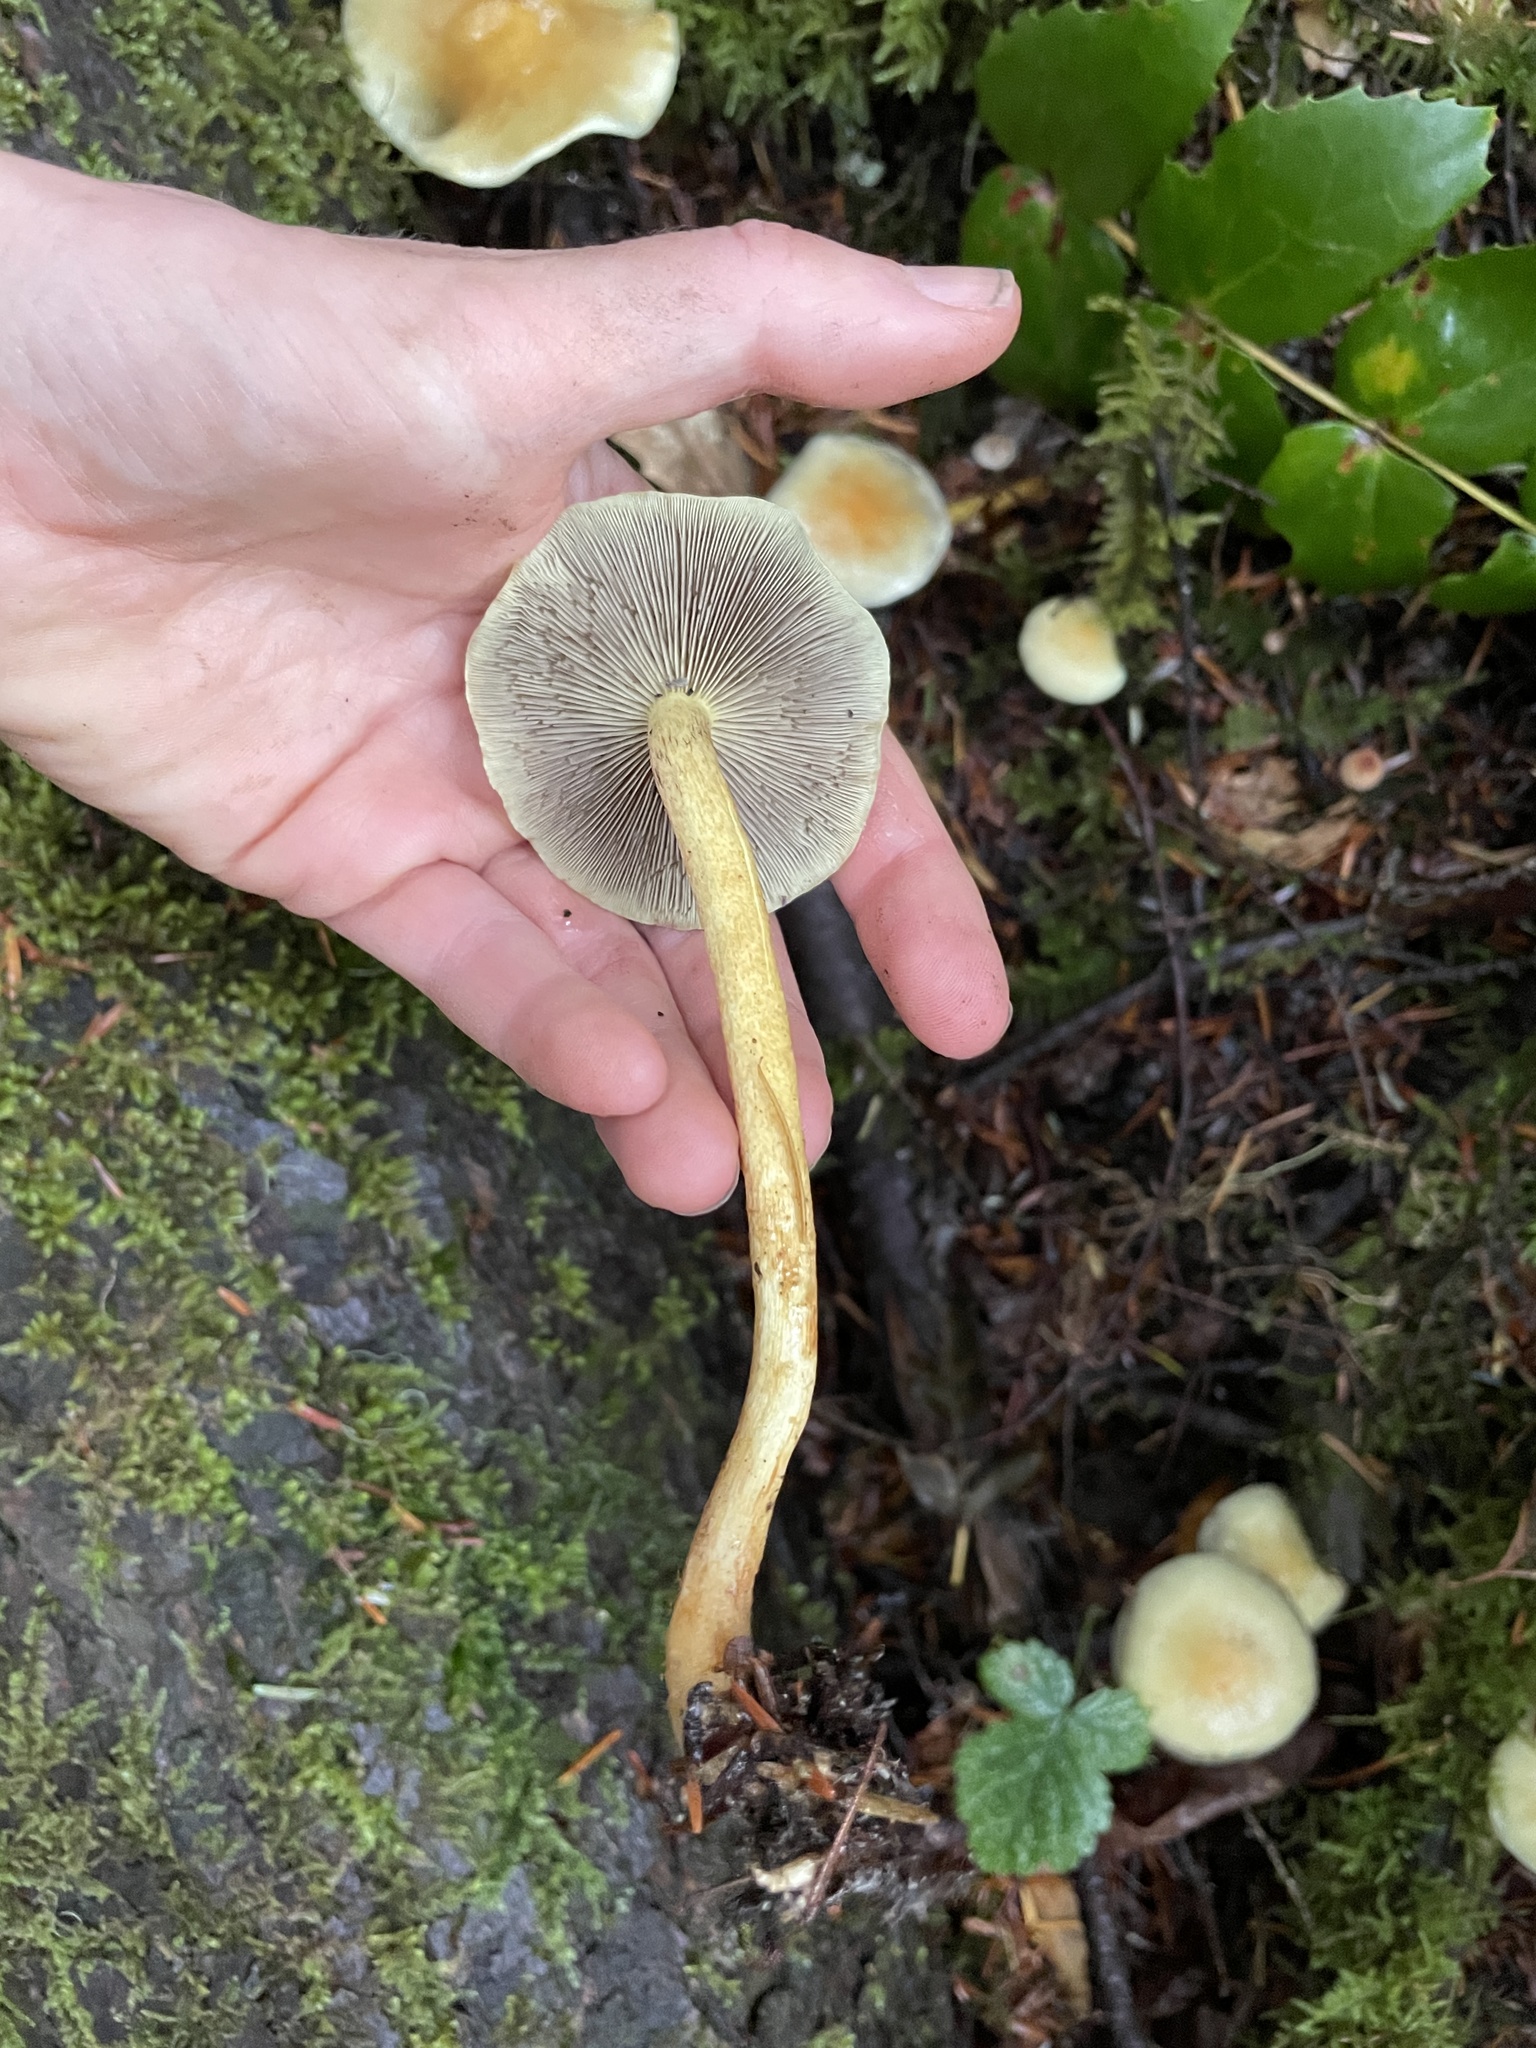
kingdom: Fungi
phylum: Basidiomycota
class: Agaricomycetes
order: Agaricales
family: Strophariaceae
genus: Hypholoma
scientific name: Hypholoma fasciculare
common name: Sulphur tuft
